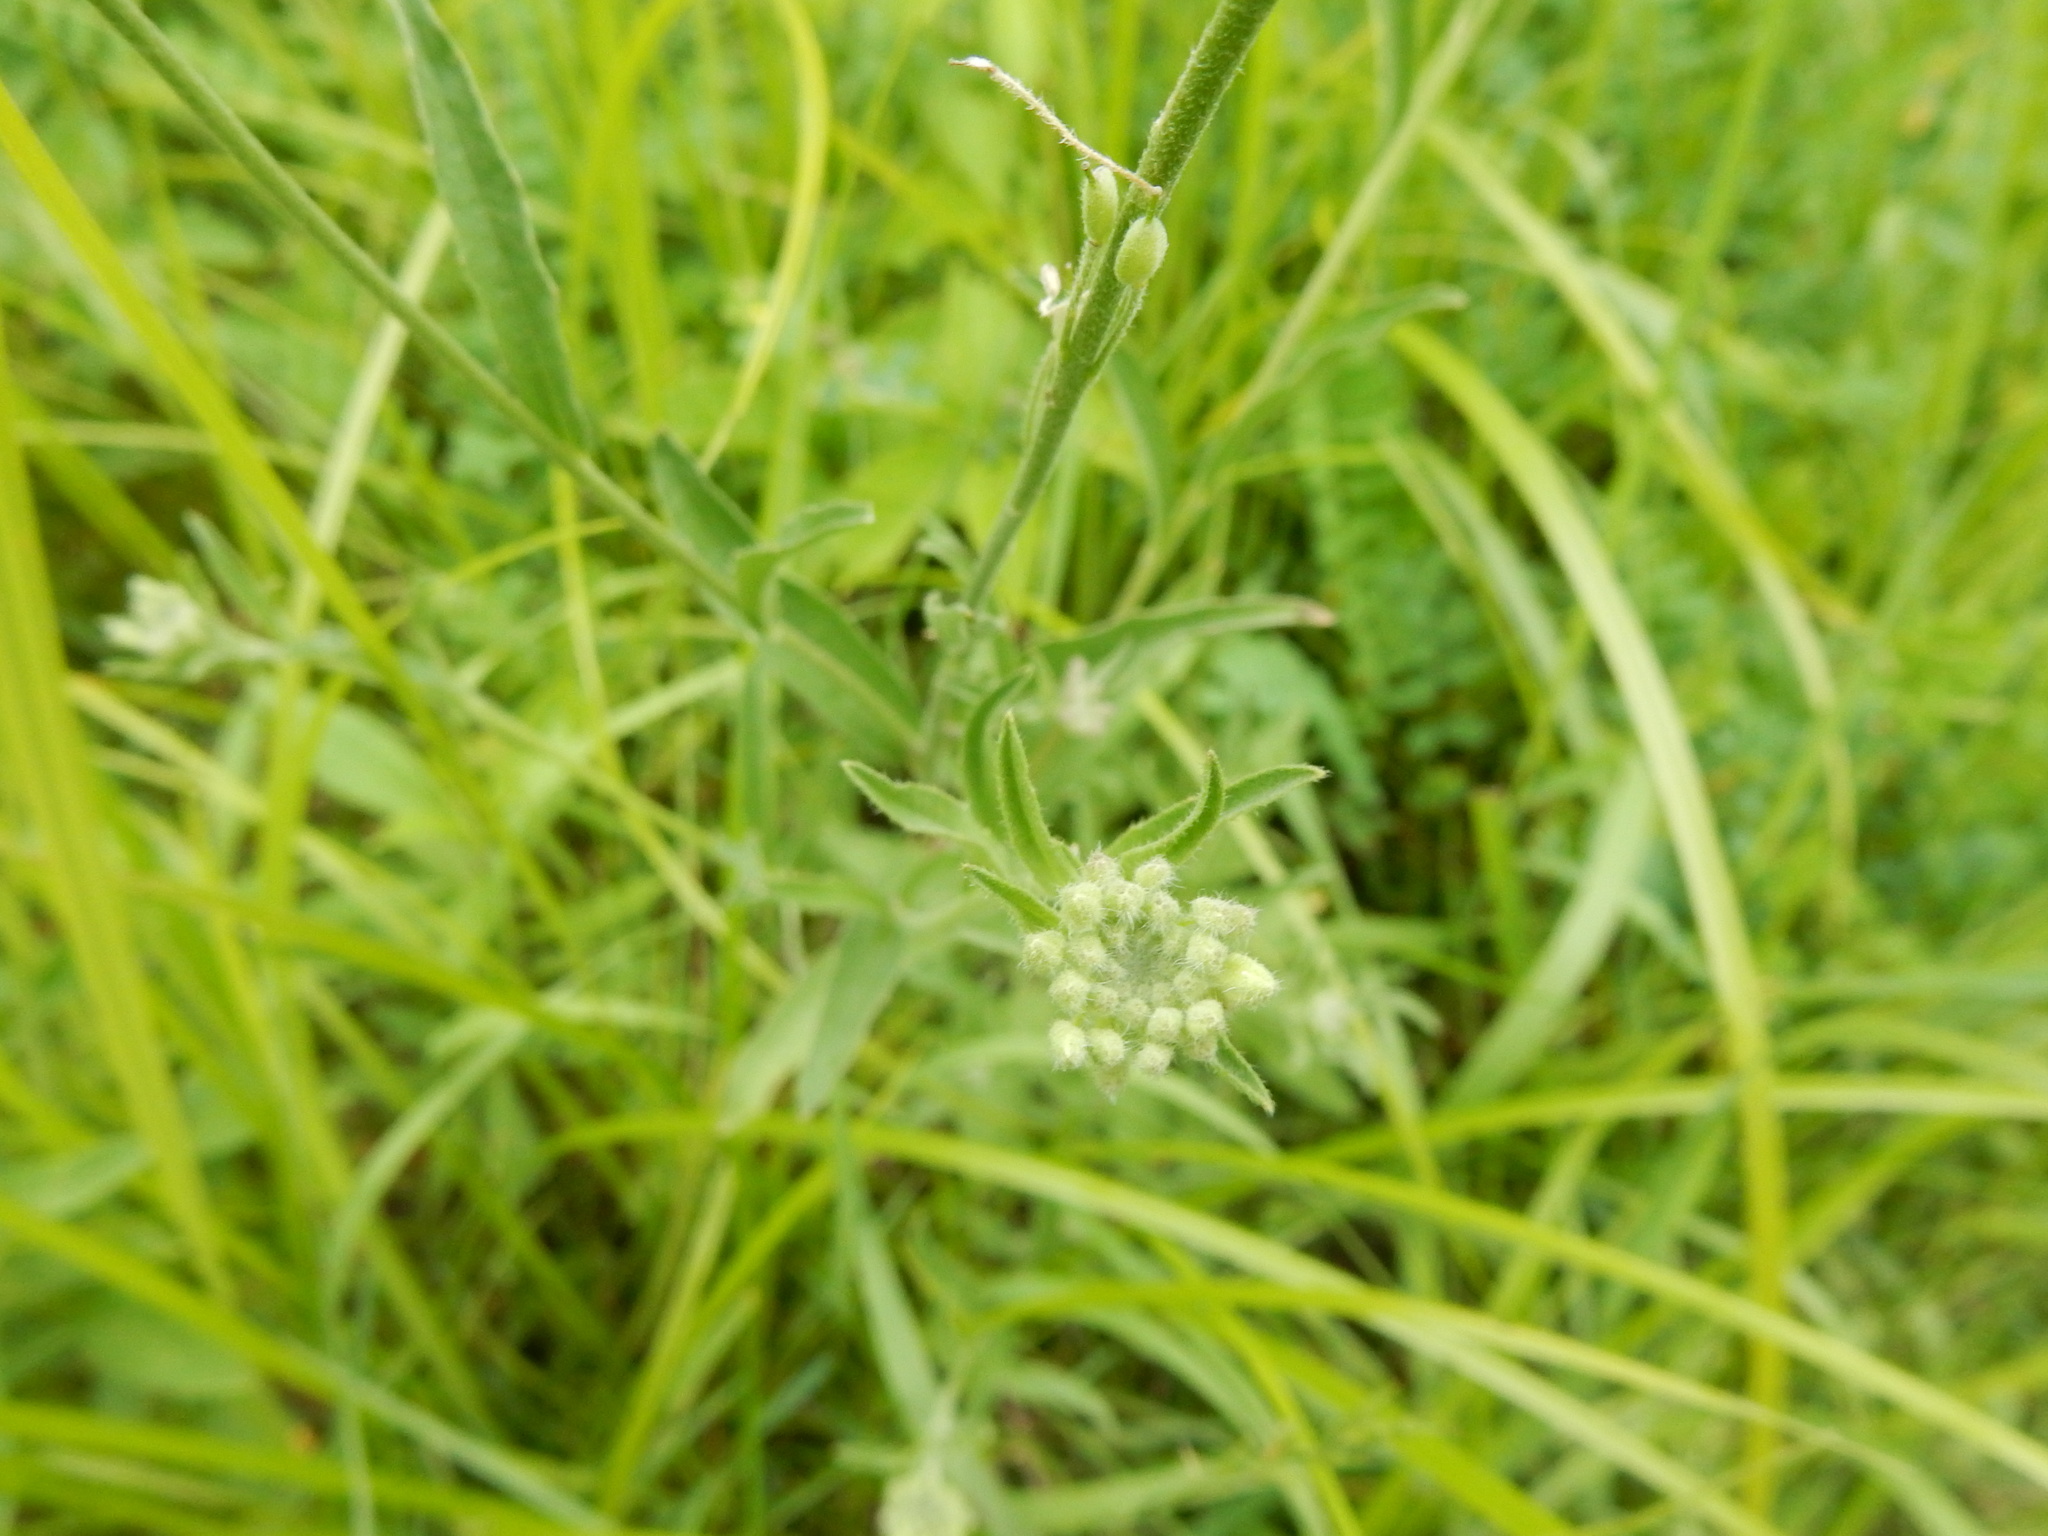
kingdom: Plantae
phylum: Tracheophyta
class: Magnoliopsida
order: Brassicales
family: Brassicaceae
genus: Berteroa
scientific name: Berteroa incana
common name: Hoary alison
